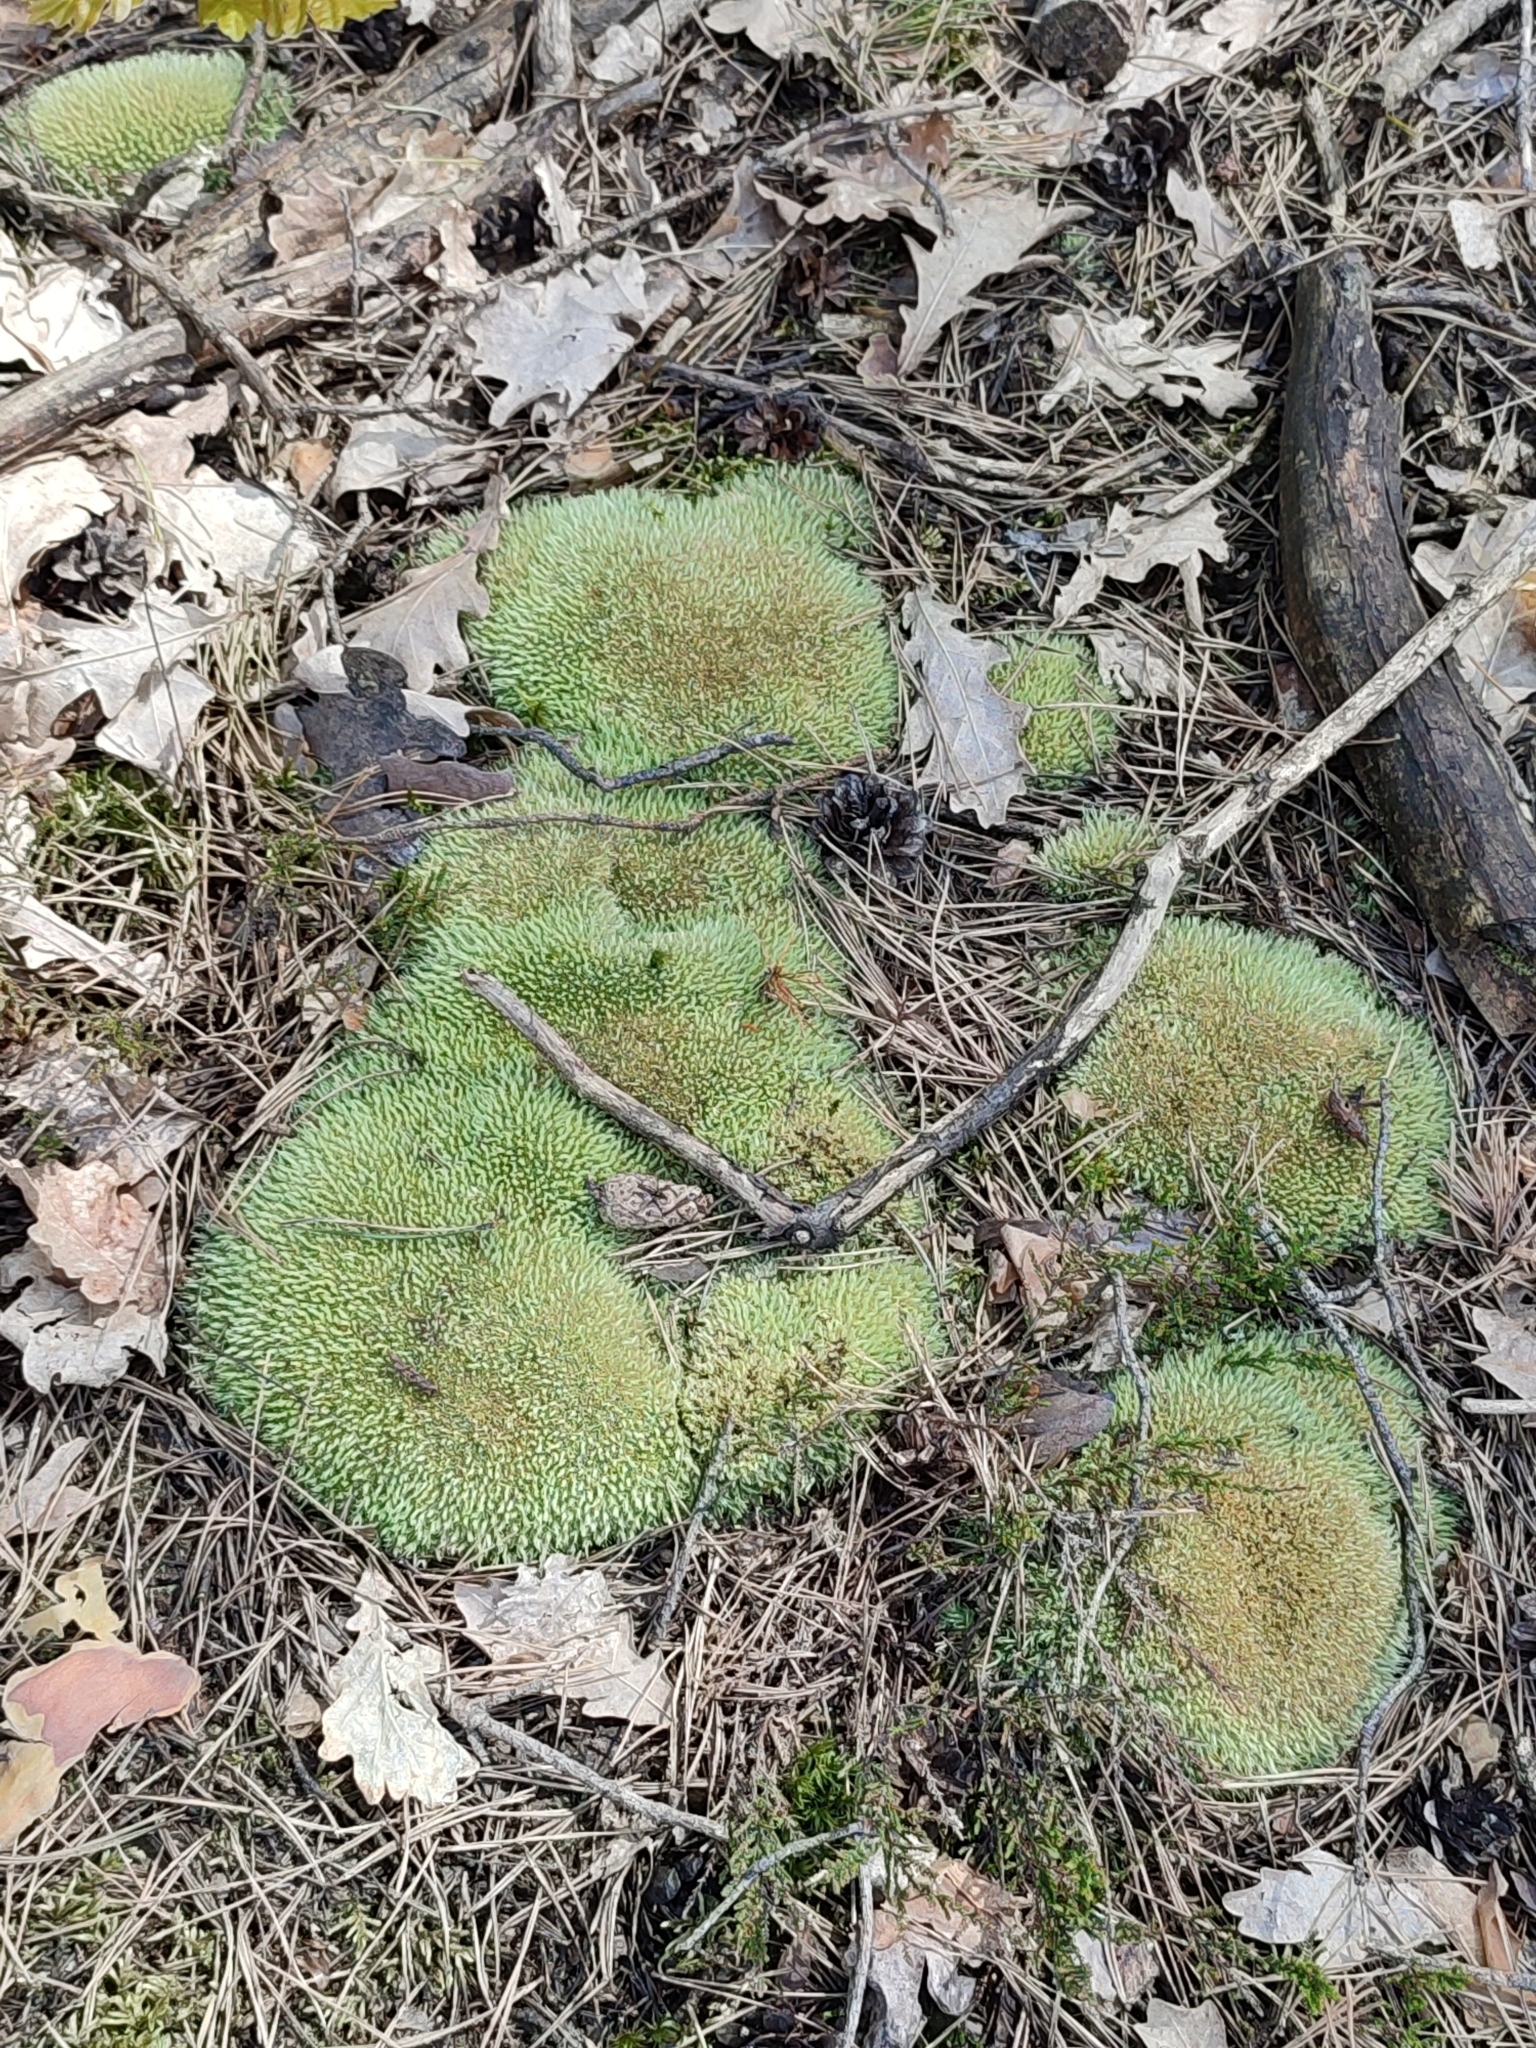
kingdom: Plantae
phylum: Bryophyta
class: Bryopsida
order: Dicranales
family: Leucobryaceae
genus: Leucobryum
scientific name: Leucobryum glaucum
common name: Large white-moss
